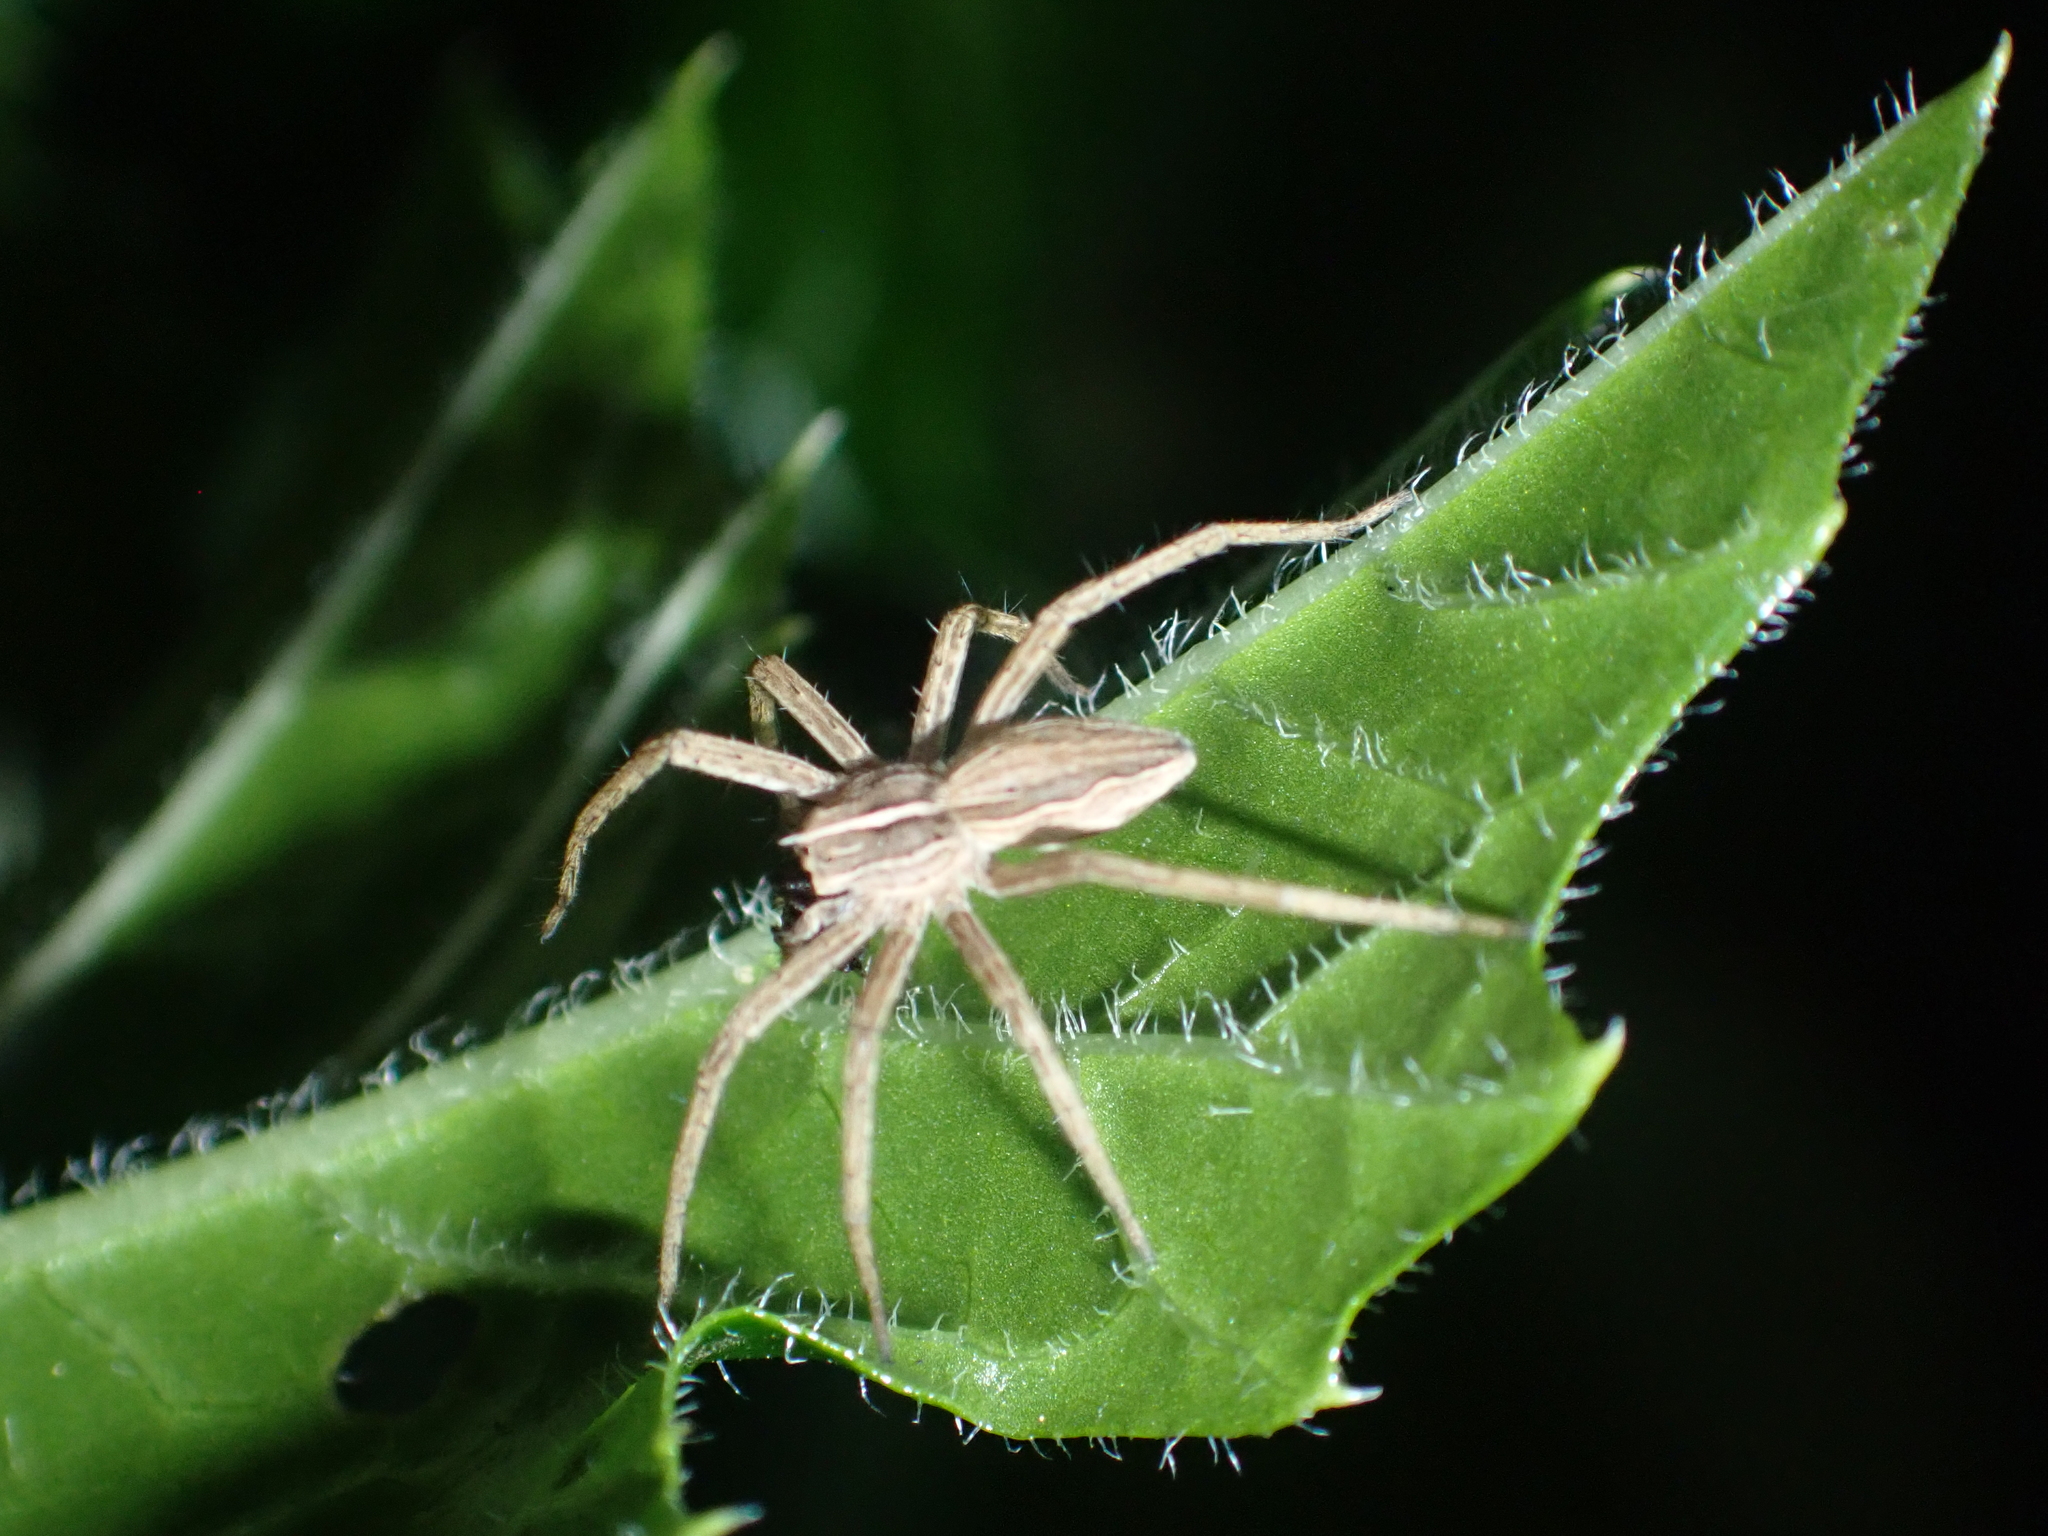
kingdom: Animalia
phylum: Arthropoda
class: Arachnida
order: Araneae
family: Pisauridae
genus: Pisaura
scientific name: Pisaura mirabilis
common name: Tent spider
